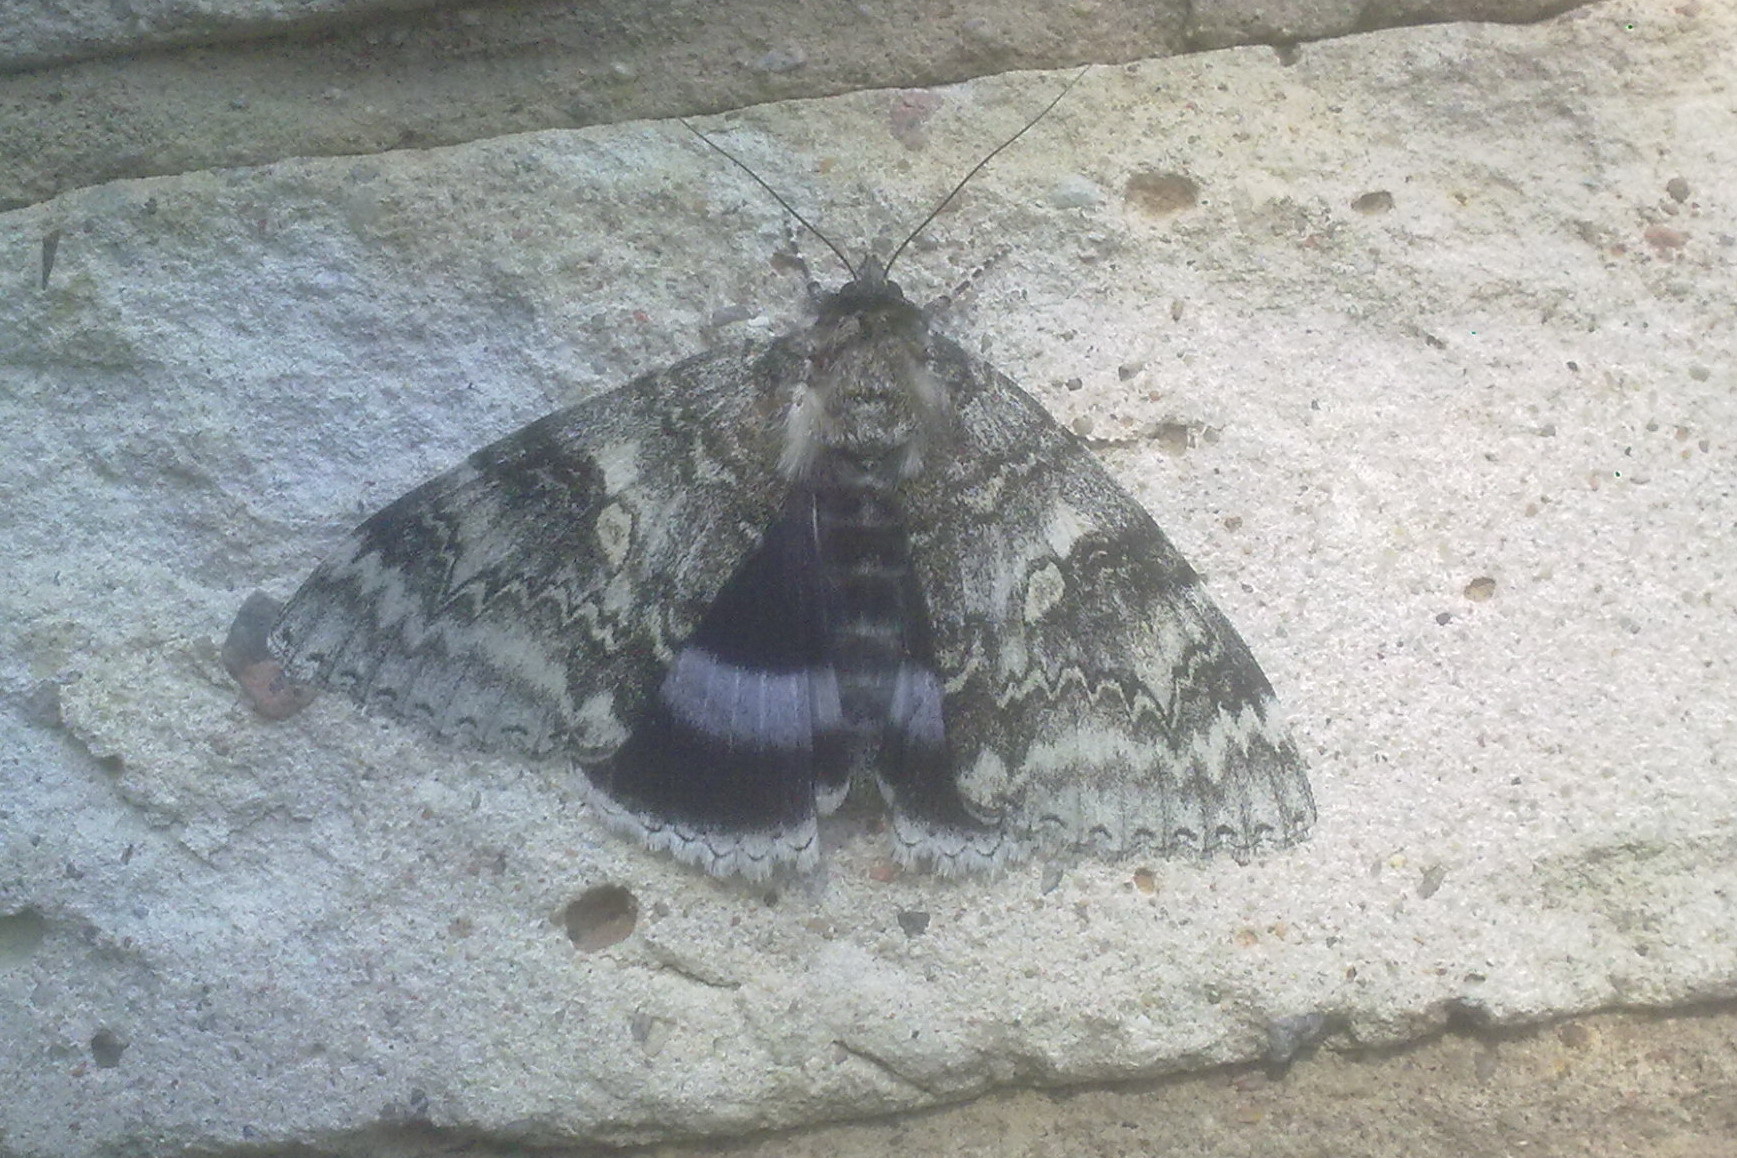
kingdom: Animalia
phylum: Arthropoda
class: Insecta
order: Lepidoptera
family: Erebidae
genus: Catocala
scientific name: Catocala fraxini
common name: Clifden nonpareil
